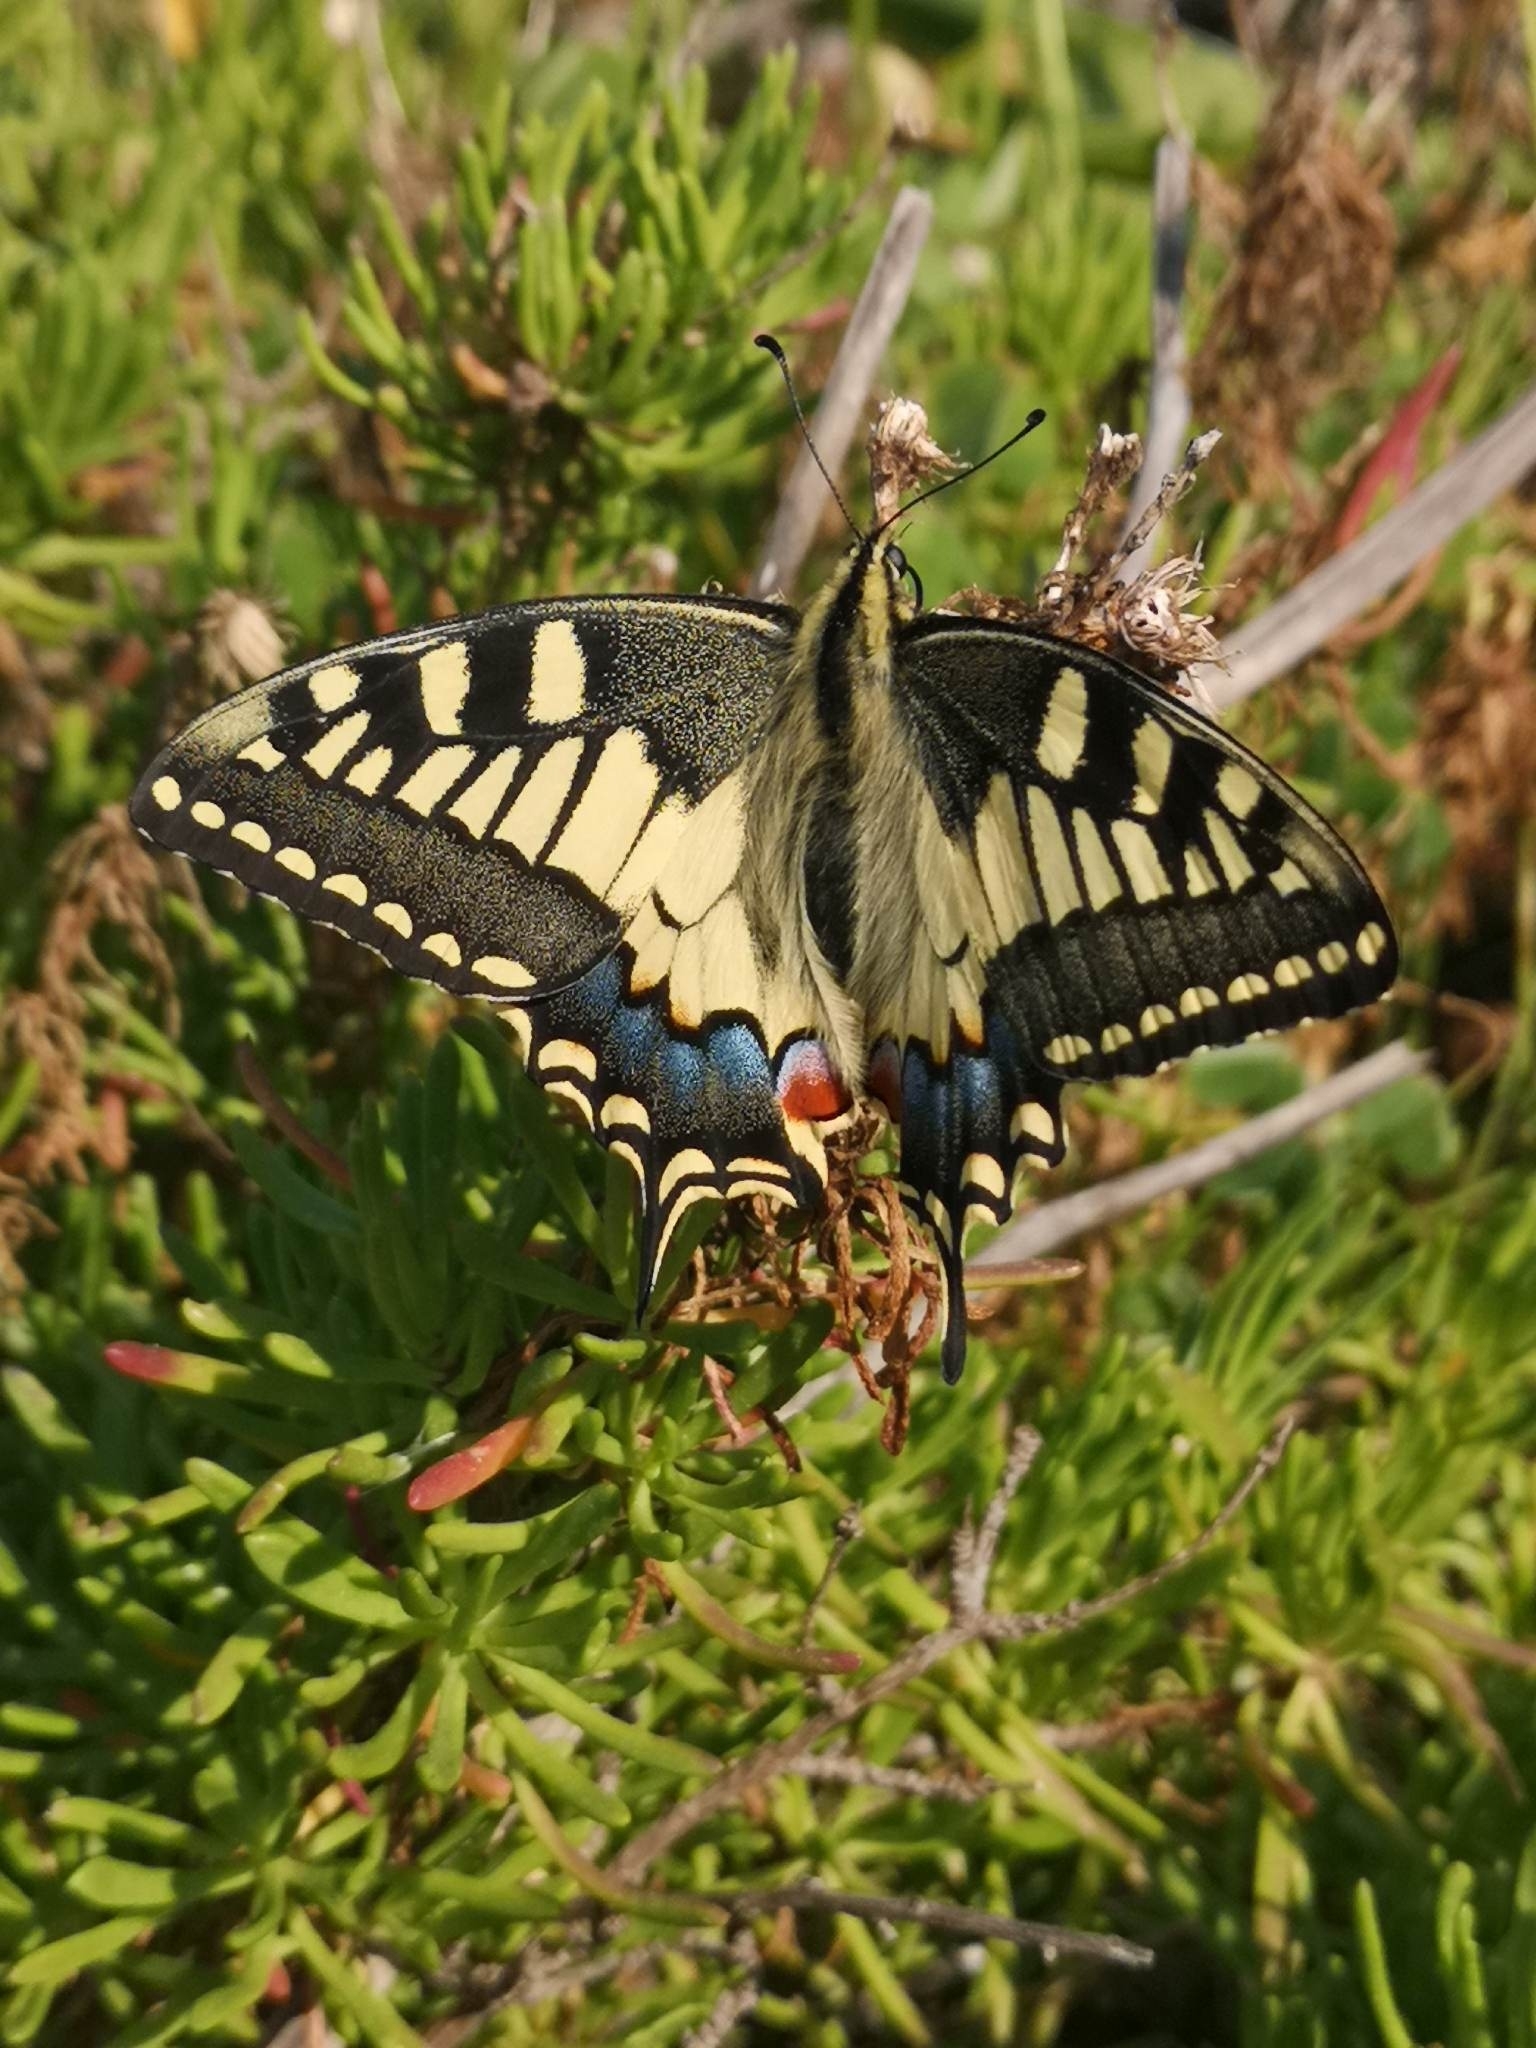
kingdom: Animalia
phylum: Arthropoda
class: Insecta
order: Lepidoptera
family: Papilionidae
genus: Papilio
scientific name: Papilio machaon
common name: Swallowtail
